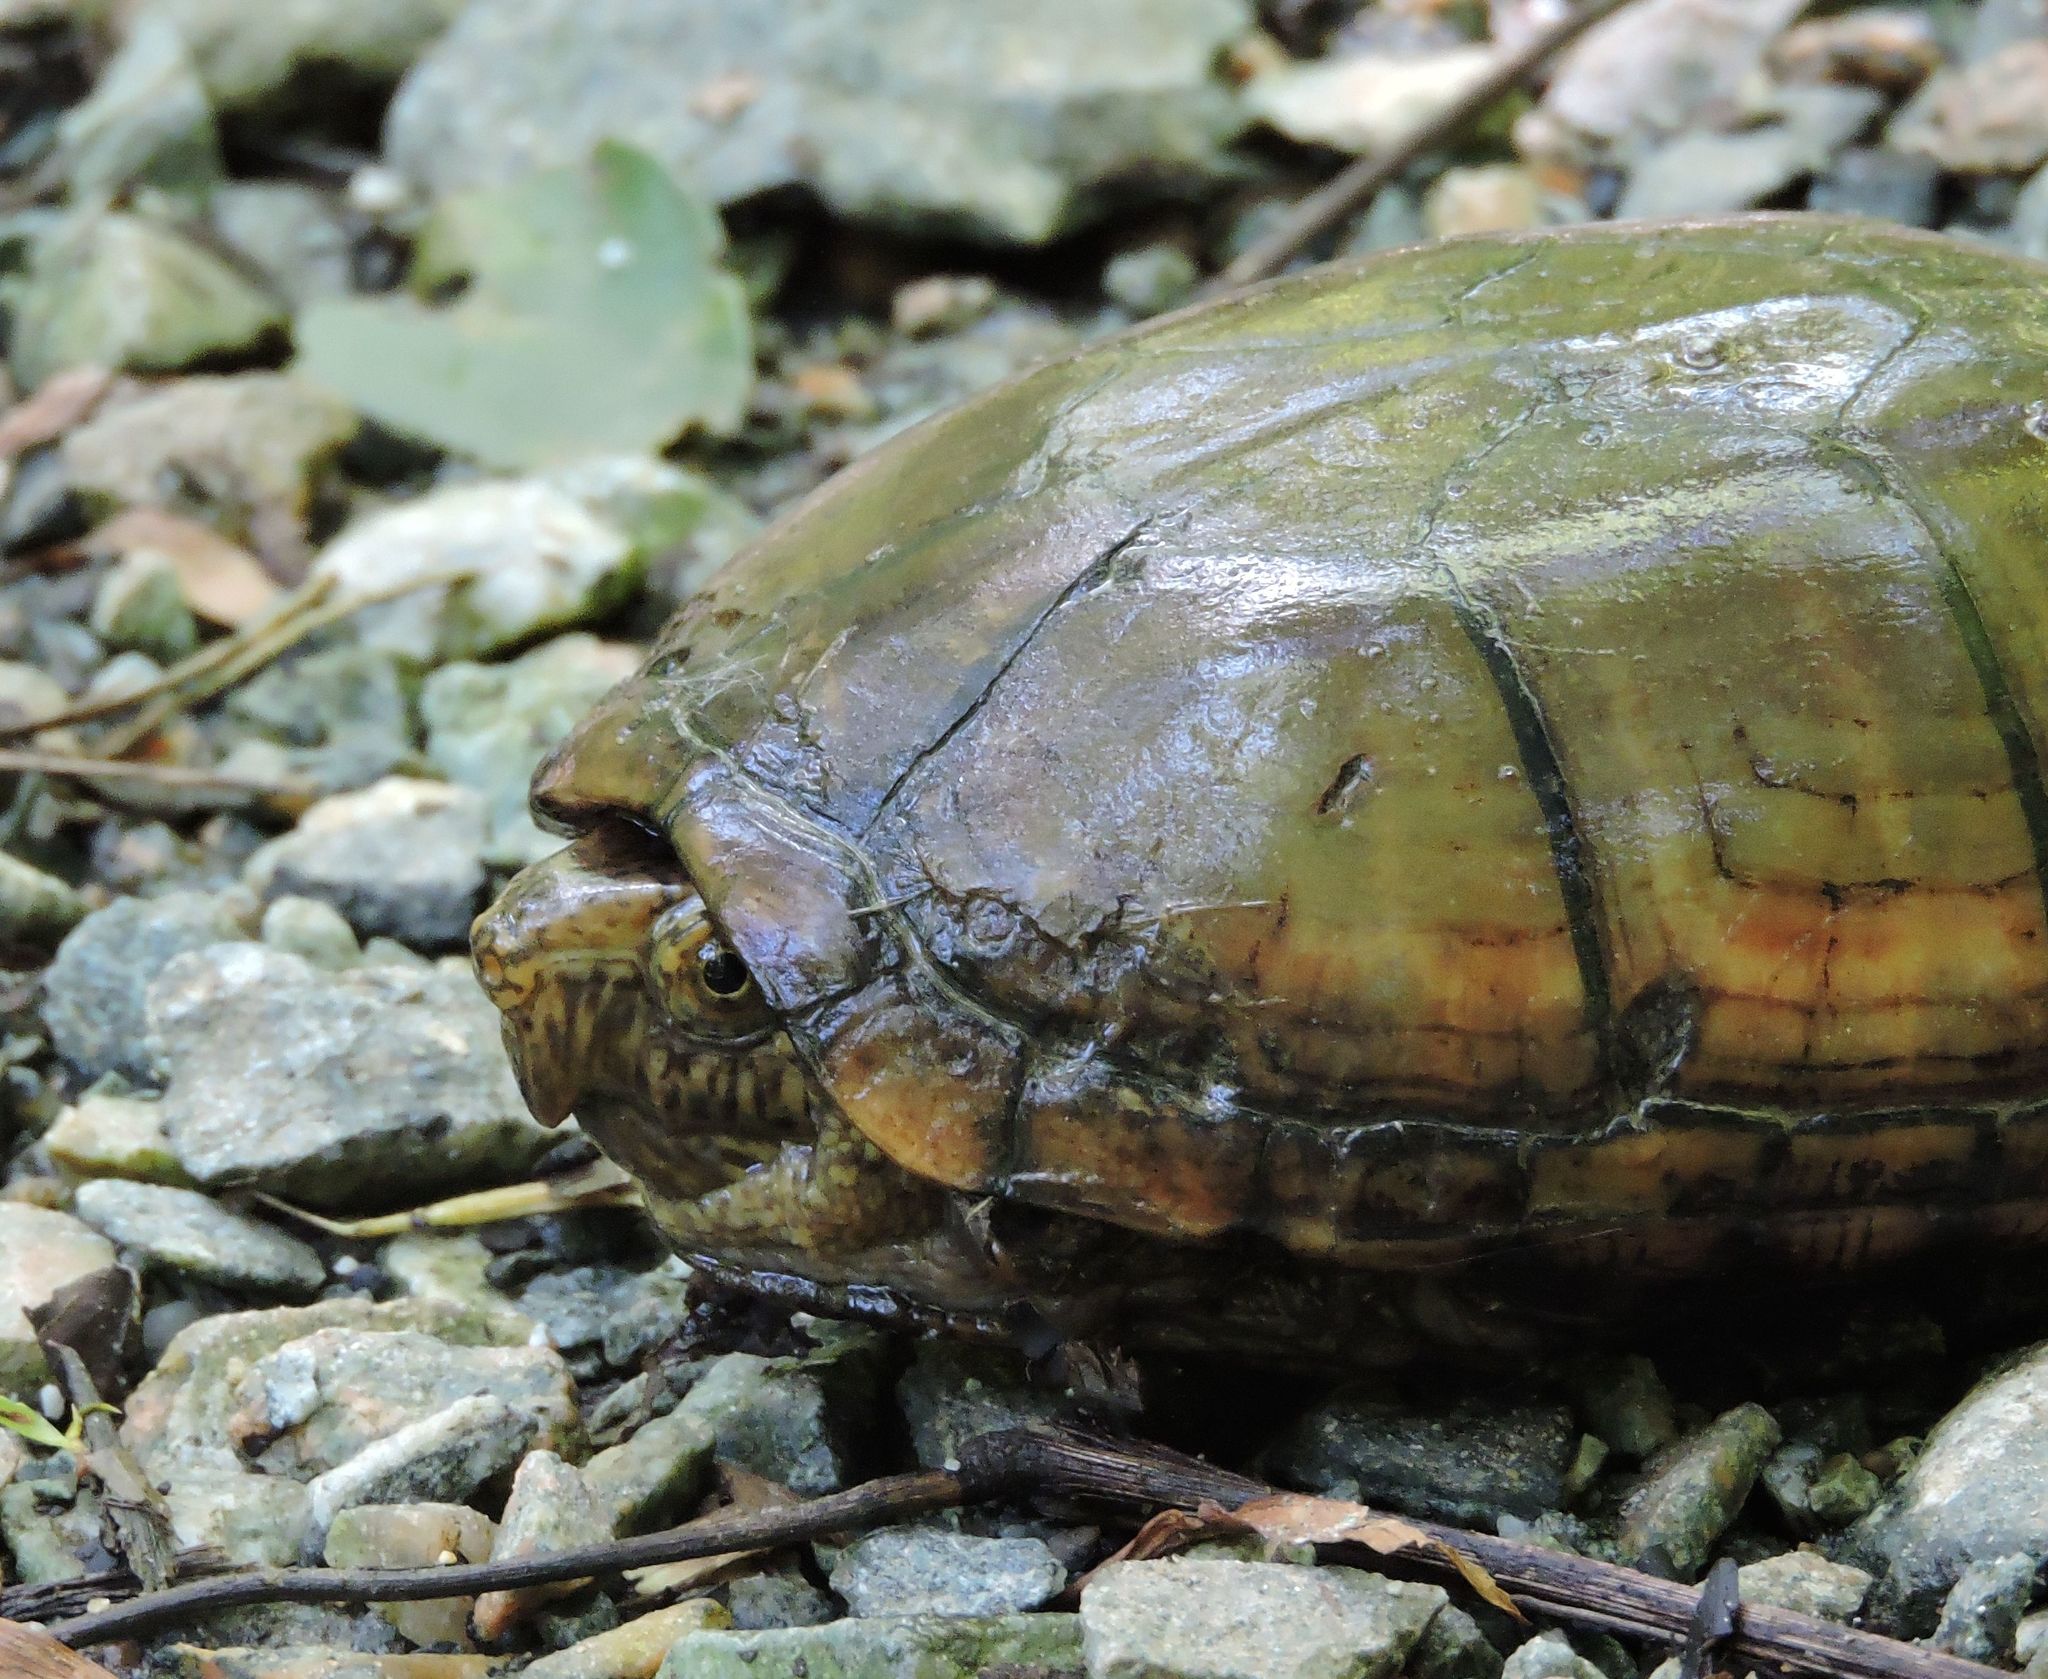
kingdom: Animalia
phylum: Chordata
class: Testudines
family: Kinosternidae
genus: Kinosternon
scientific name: Kinosternon subrubrum
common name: Eastern mud turtle
